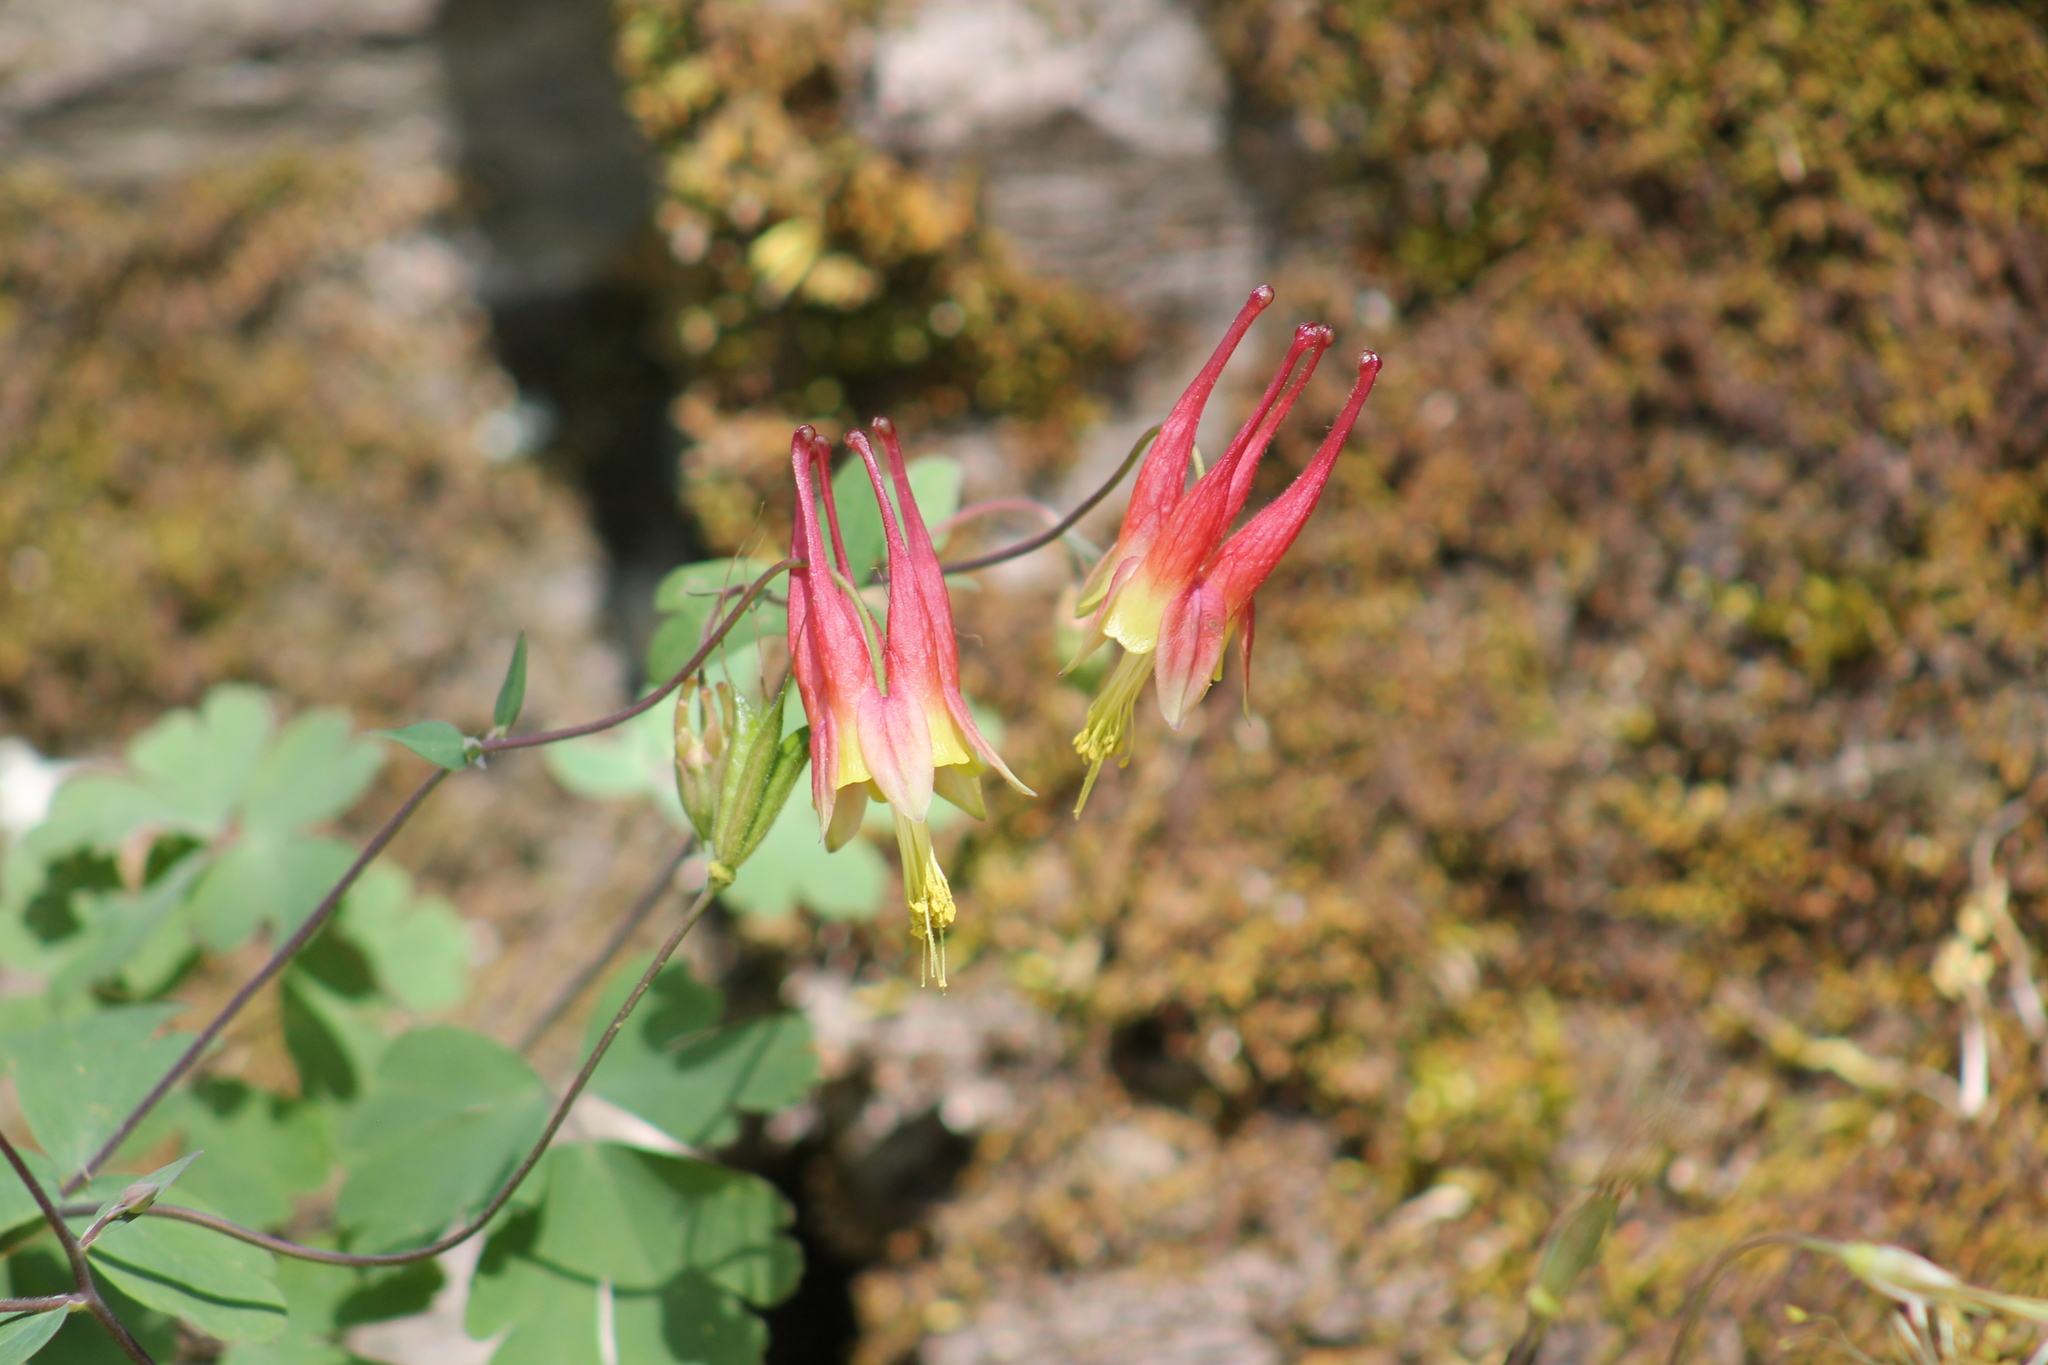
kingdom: Plantae
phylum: Tracheophyta
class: Magnoliopsida
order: Ranunculales
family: Ranunculaceae
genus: Aquilegia
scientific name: Aquilegia canadensis
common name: American columbine
